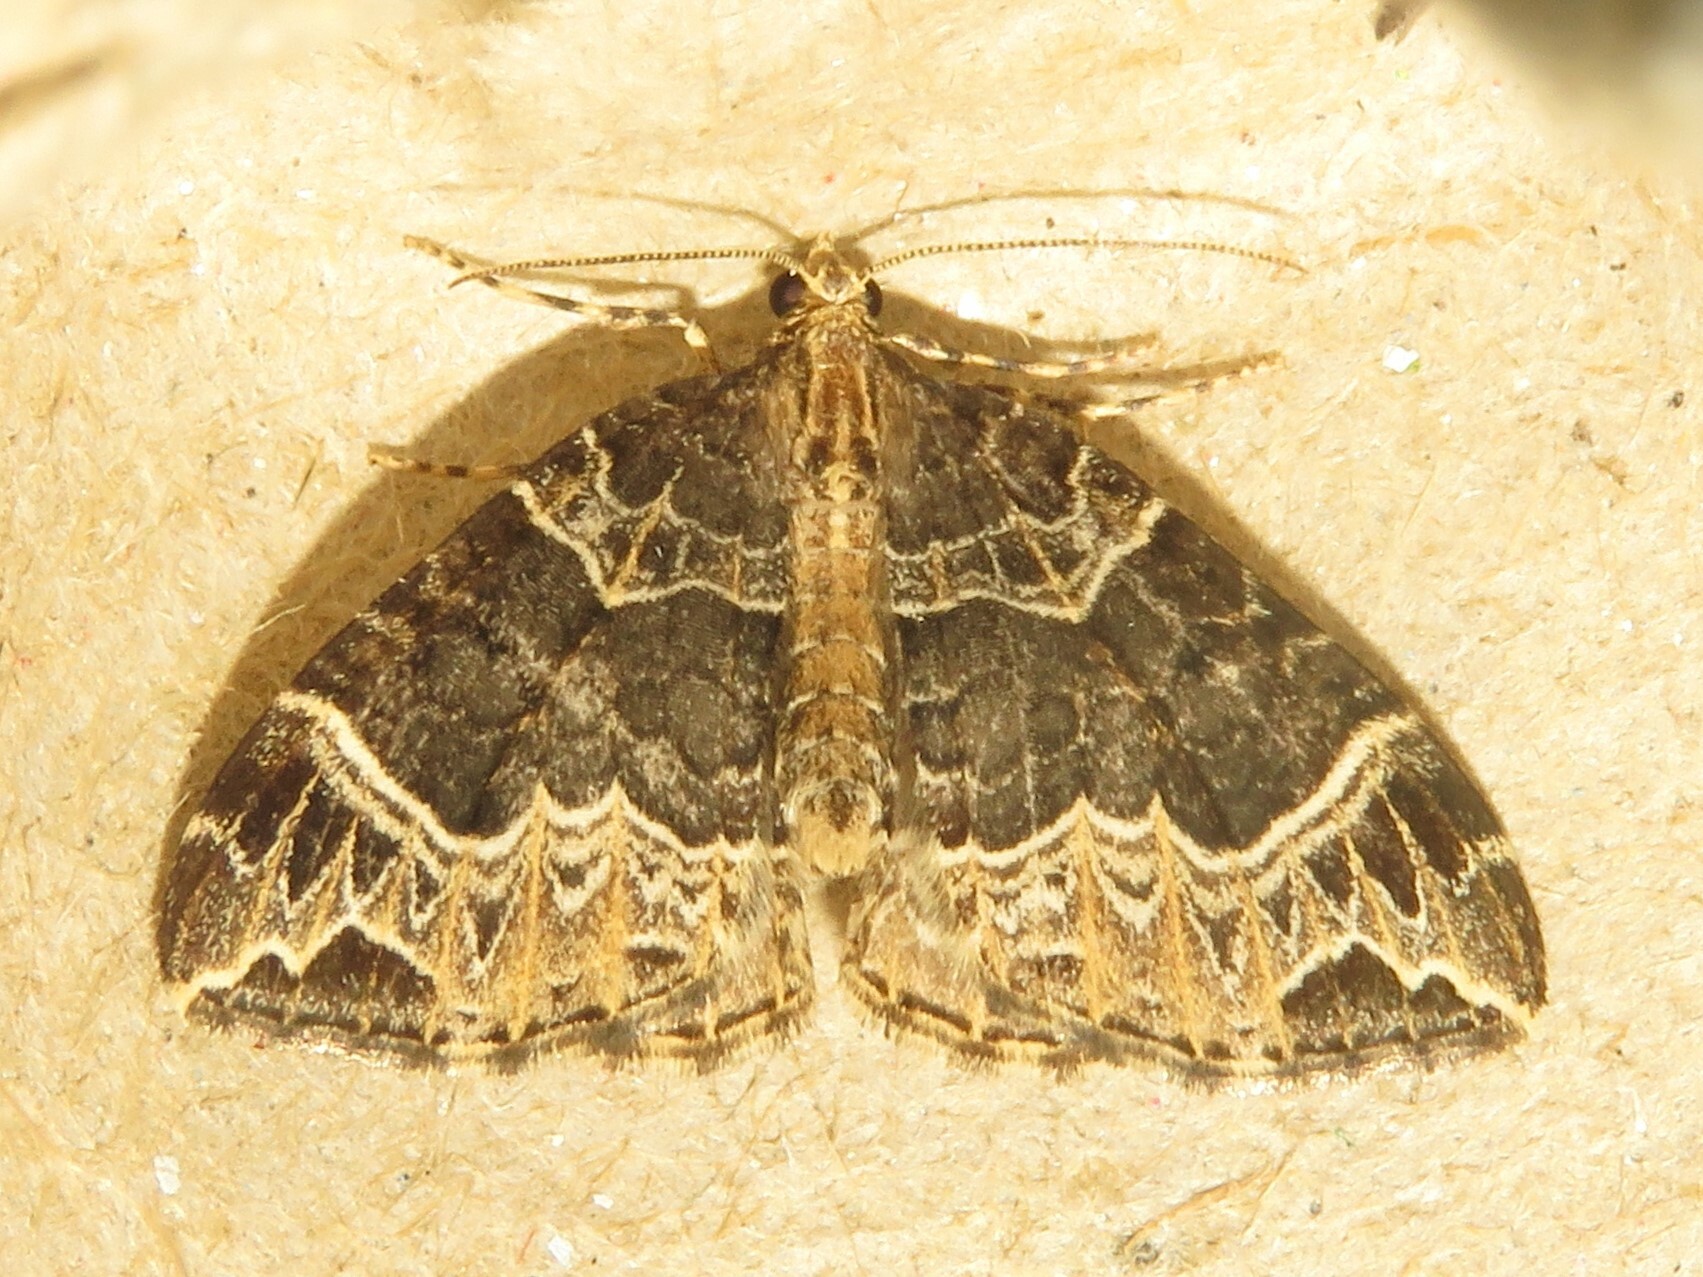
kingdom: Animalia
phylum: Arthropoda
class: Insecta
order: Lepidoptera
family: Geometridae
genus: Ecliptopera
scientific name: Ecliptopera silaceata
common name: Small phoenix
